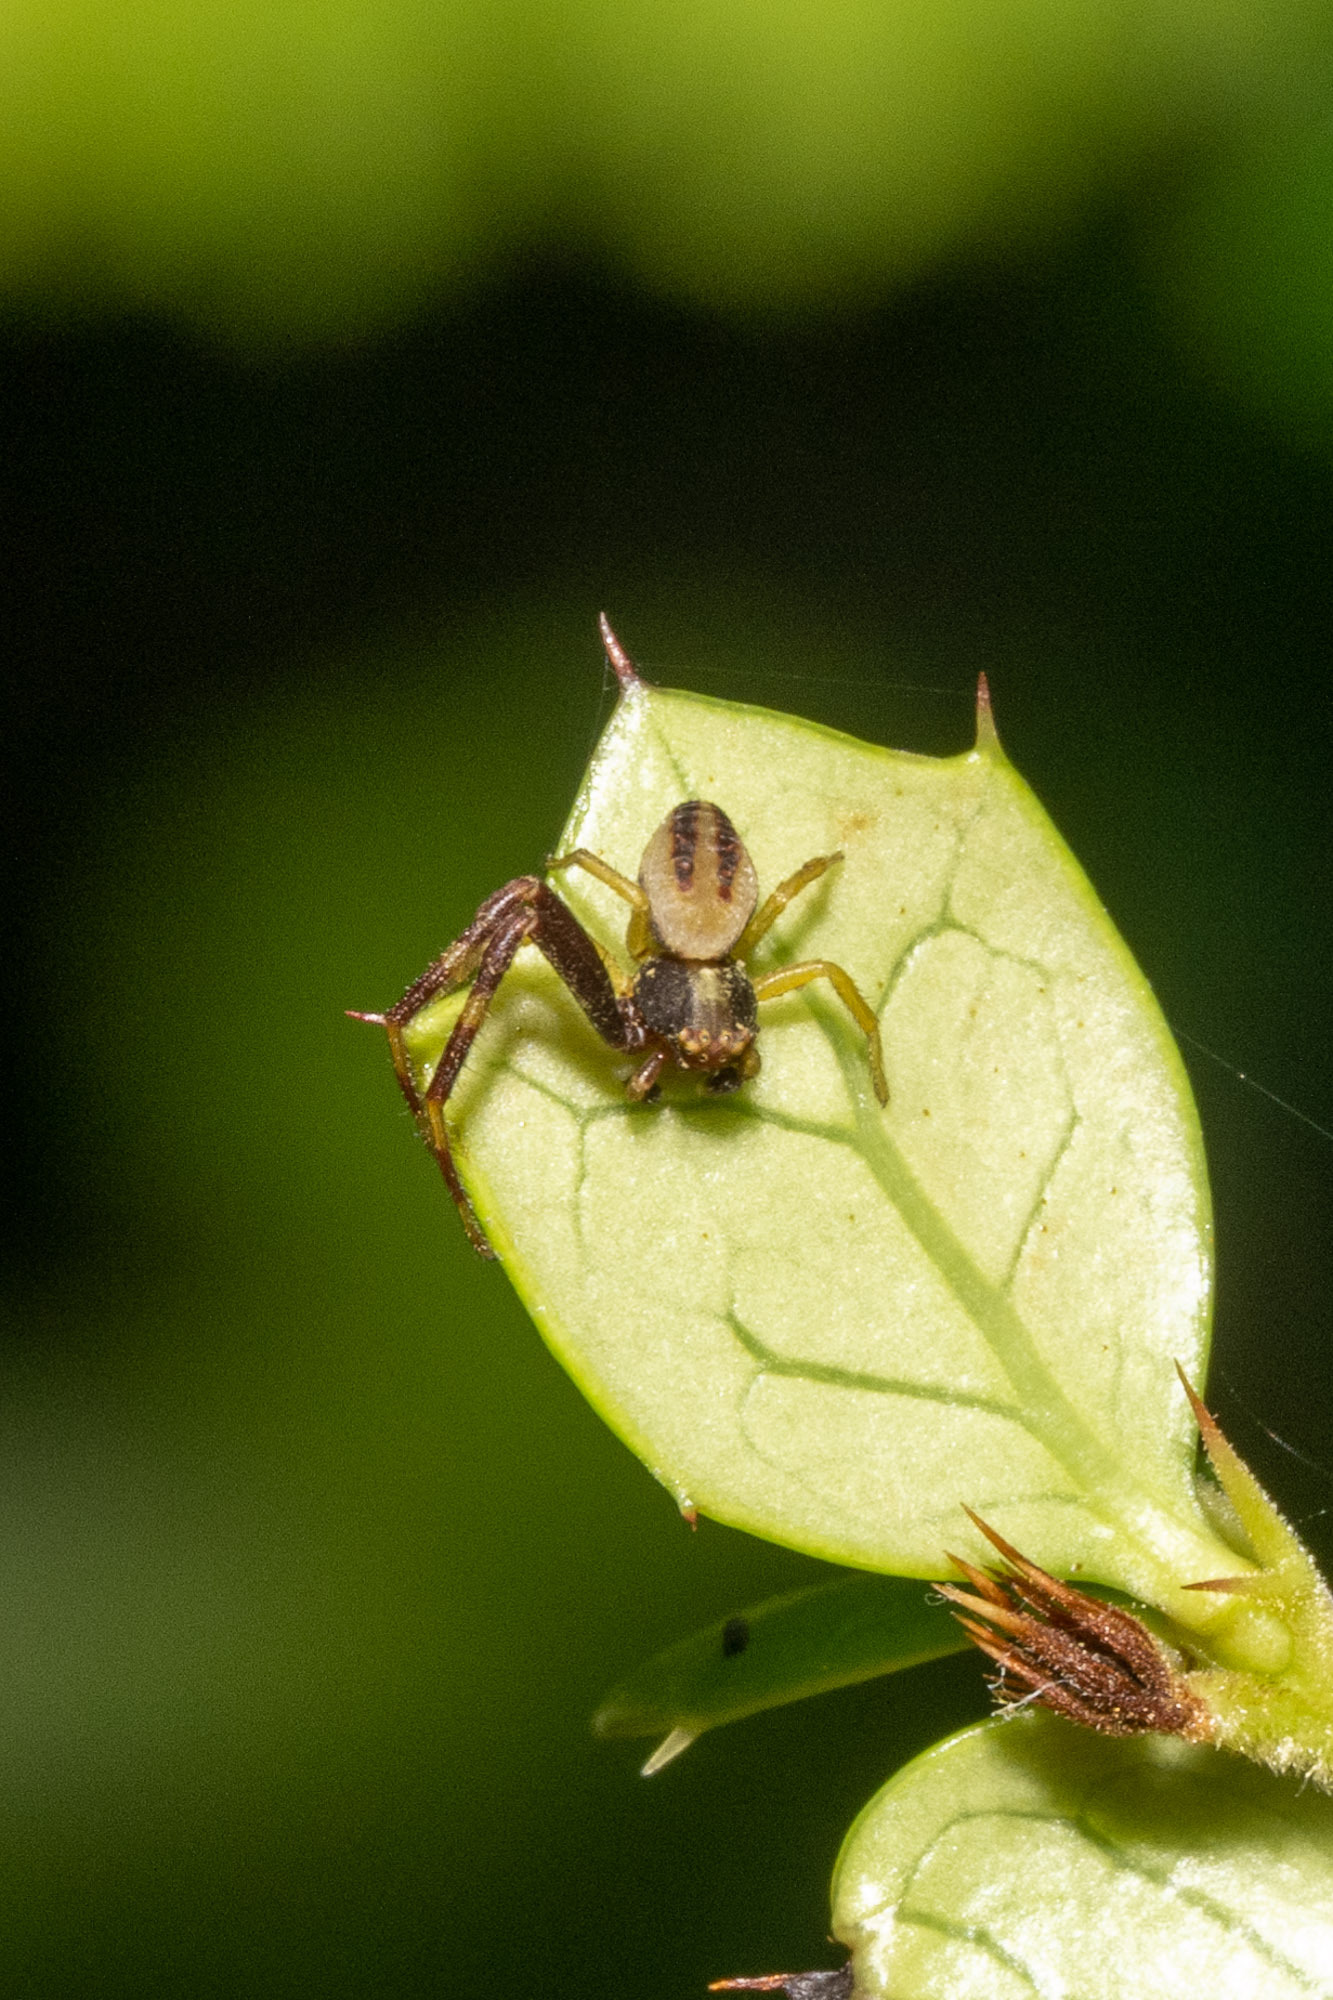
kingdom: Animalia
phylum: Arthropoda
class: Arachnida
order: Araneae
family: Thomisidae
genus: Misumena
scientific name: Misumena vatia
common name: Goldenrod crab spider
